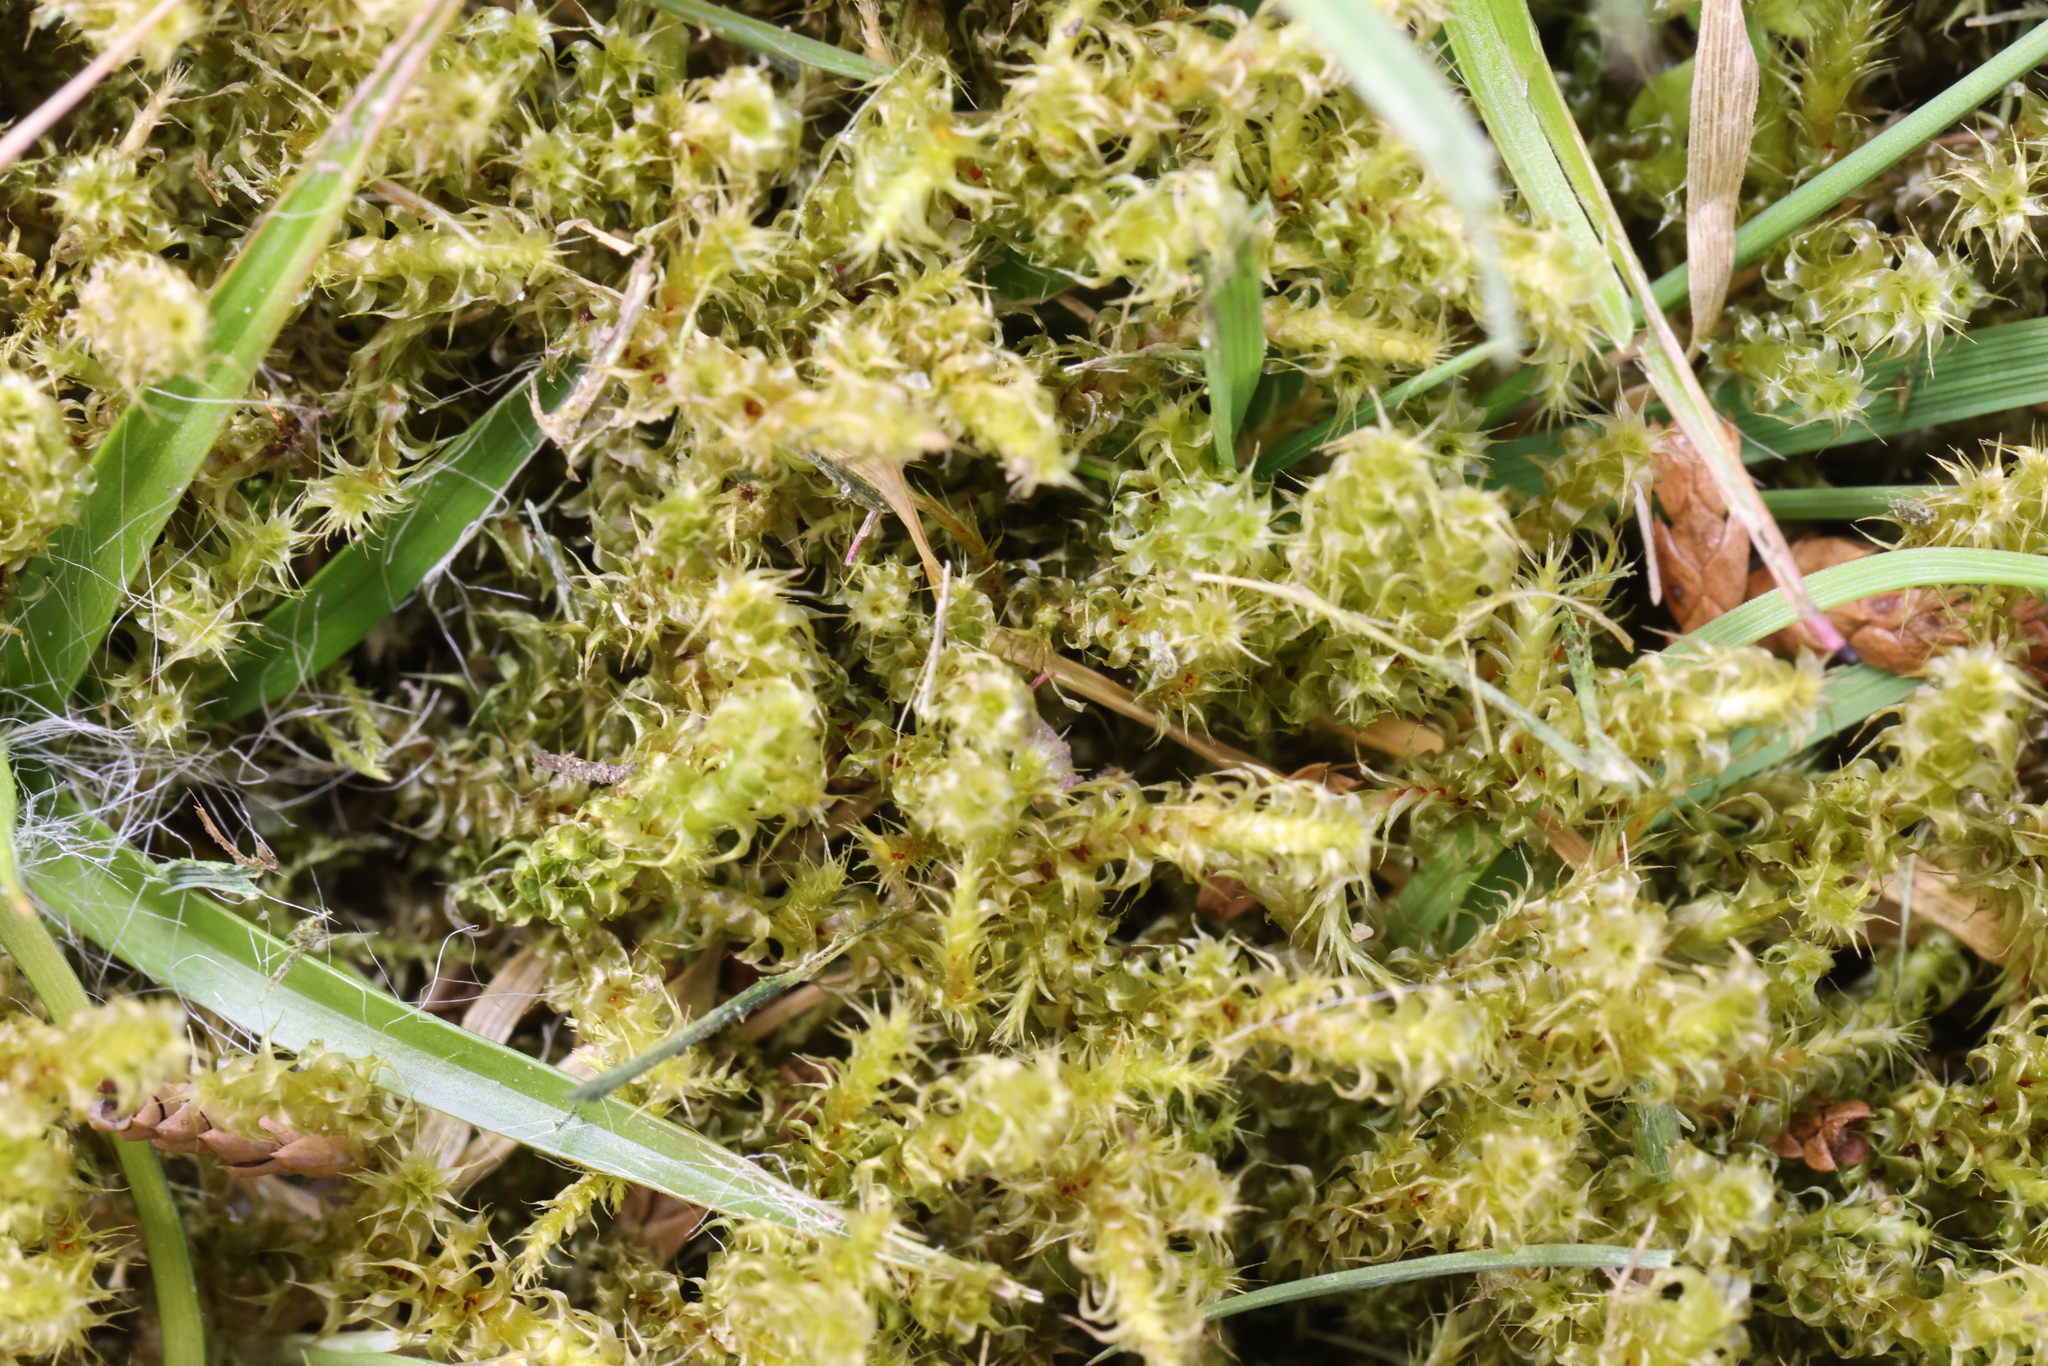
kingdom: Plantae
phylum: Bryophyta
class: Bryopsida
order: Hypnales
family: Hylocomiaceae
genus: Rhytidiadelphus
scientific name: Rhytidiadelphus squarrosus
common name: Springy turf-moss
